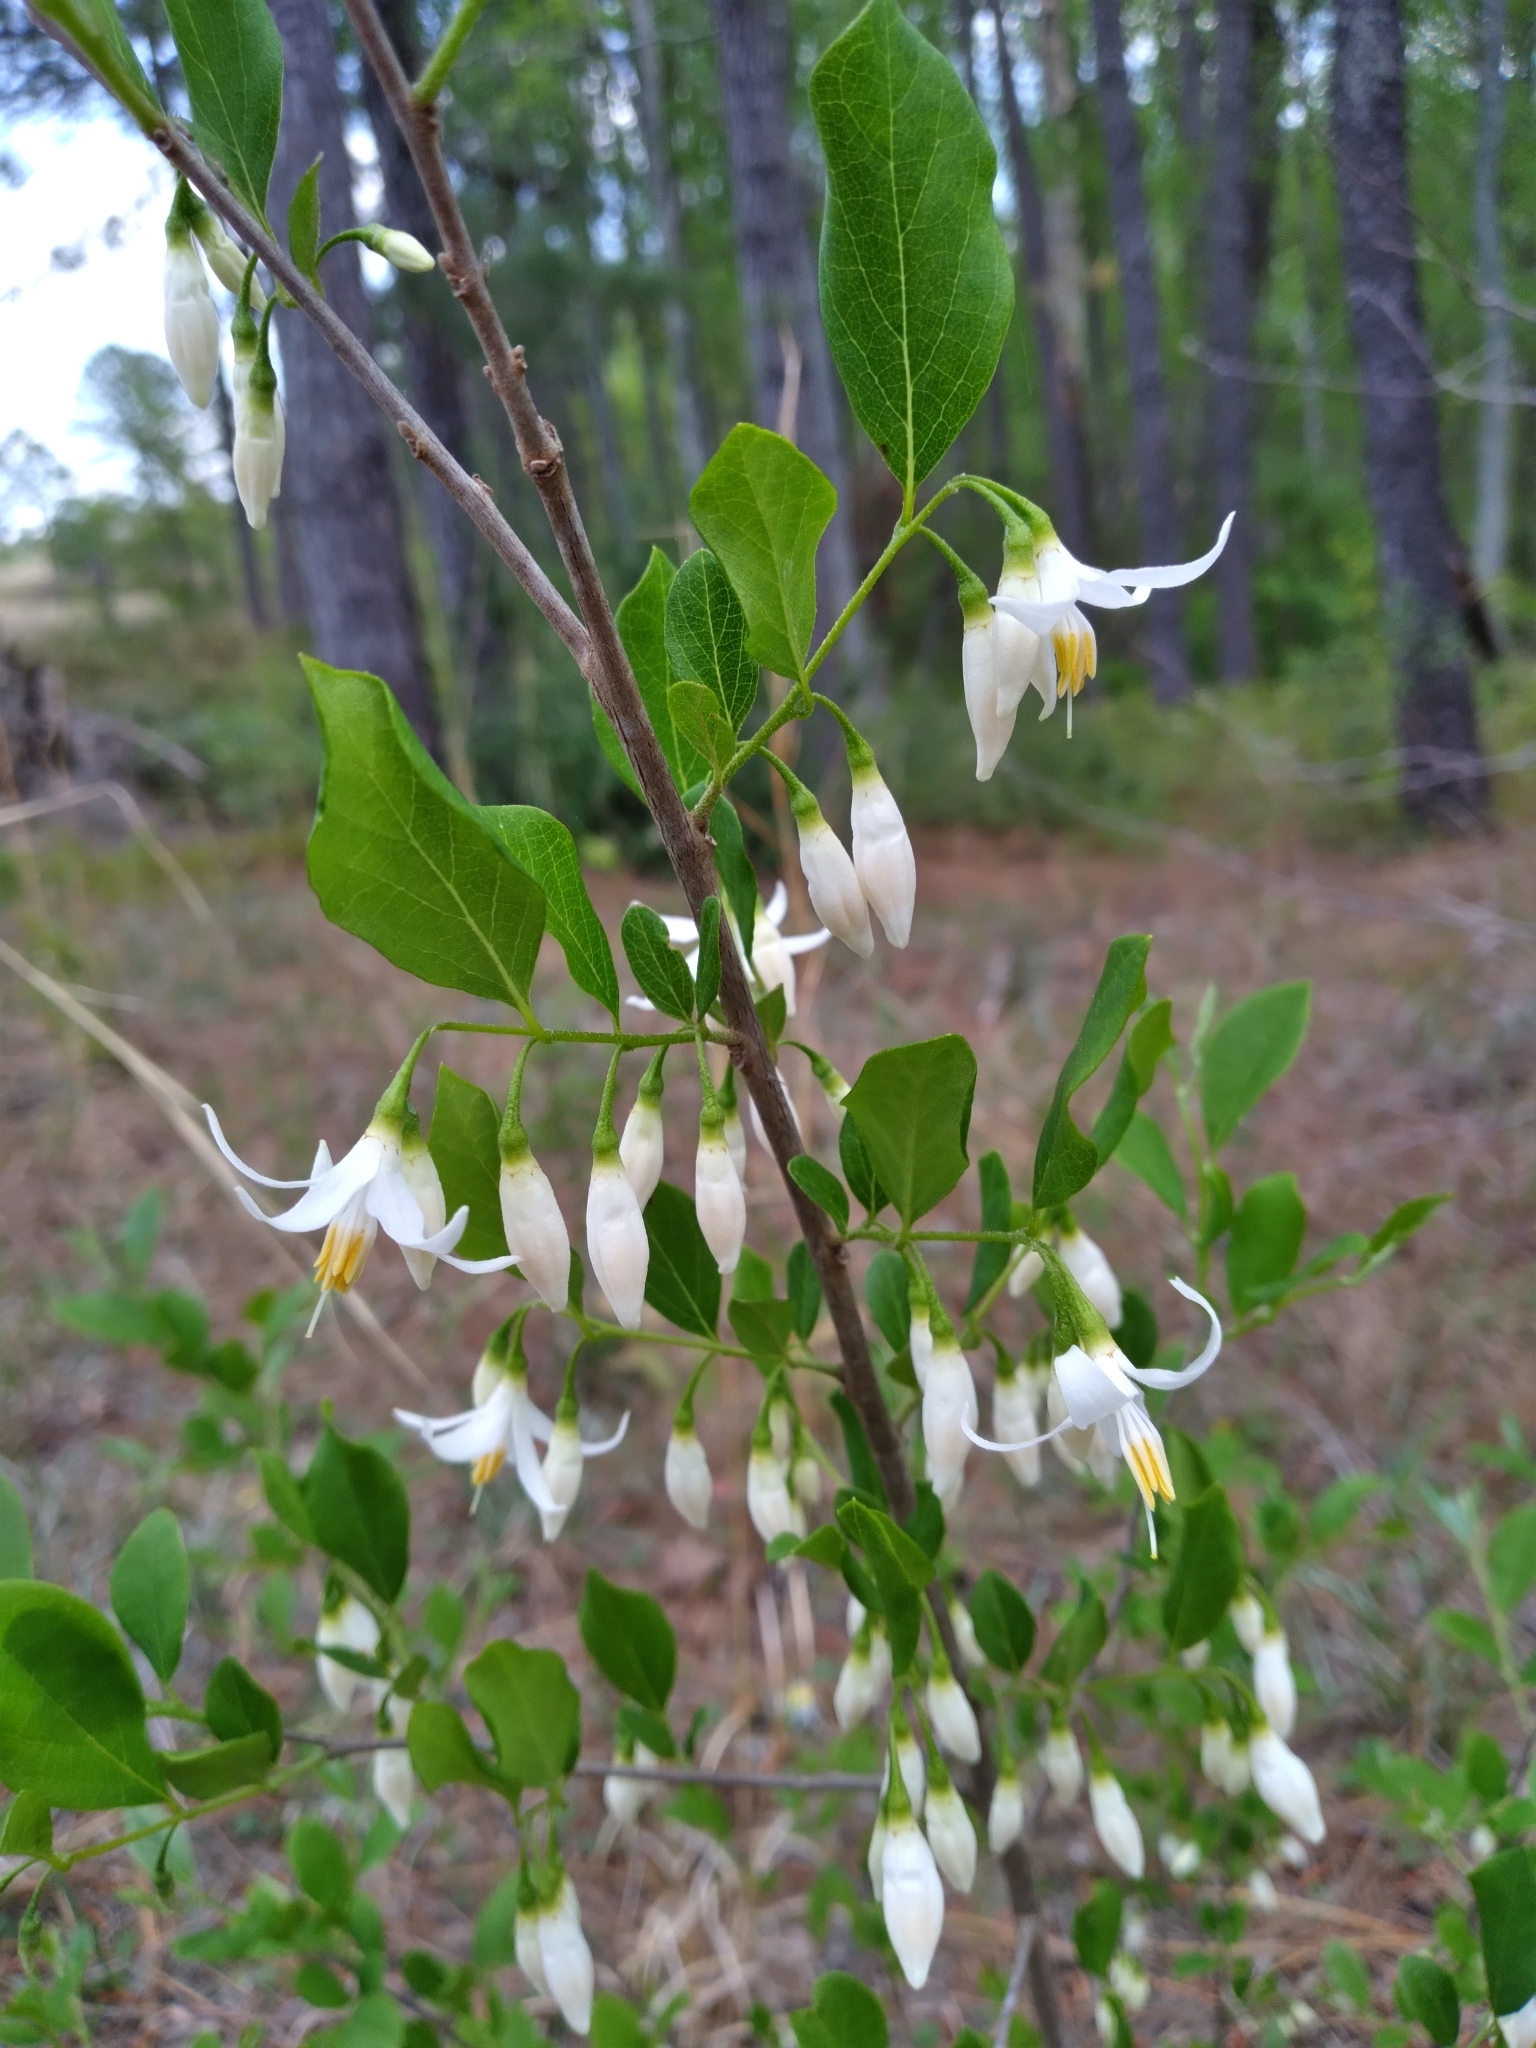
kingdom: Plantae
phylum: Tracheophyta
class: Magnoliopsida
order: Ericales
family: Styracaceae
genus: Styrax
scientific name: Styrax americanus
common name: American snowbell
